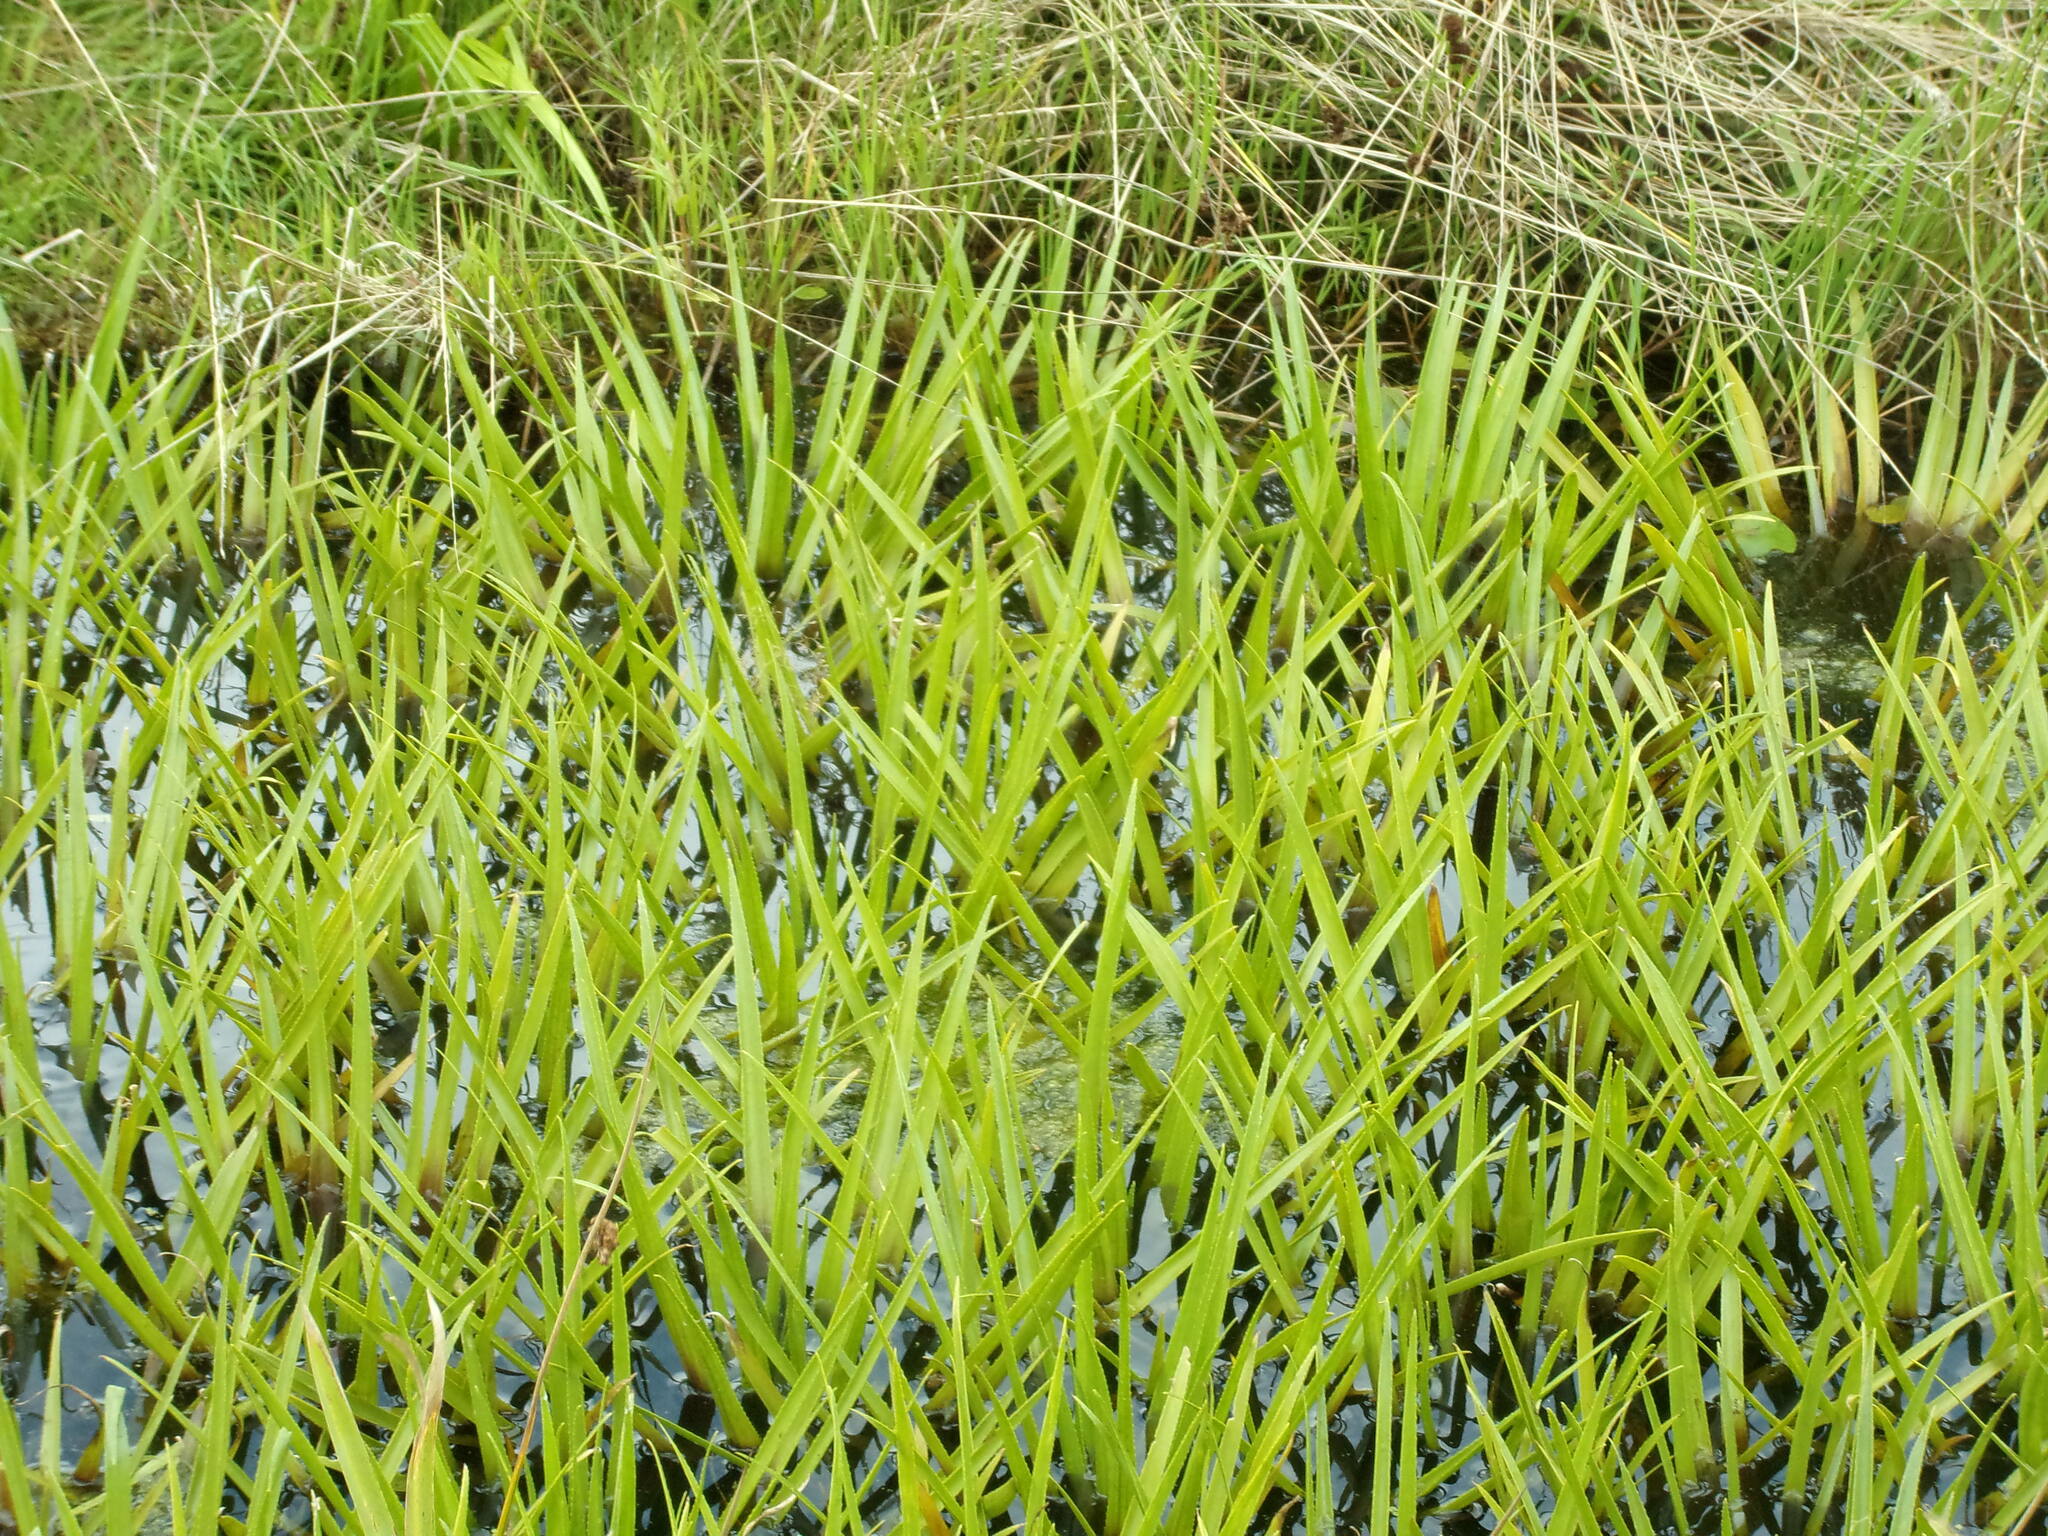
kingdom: Plantae
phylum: Tracheophyta
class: Liliopsida
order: Alismatales
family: Hydrocharitaceae
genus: Stratiotes
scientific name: Stratiotes aloides
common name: Water-soldier
